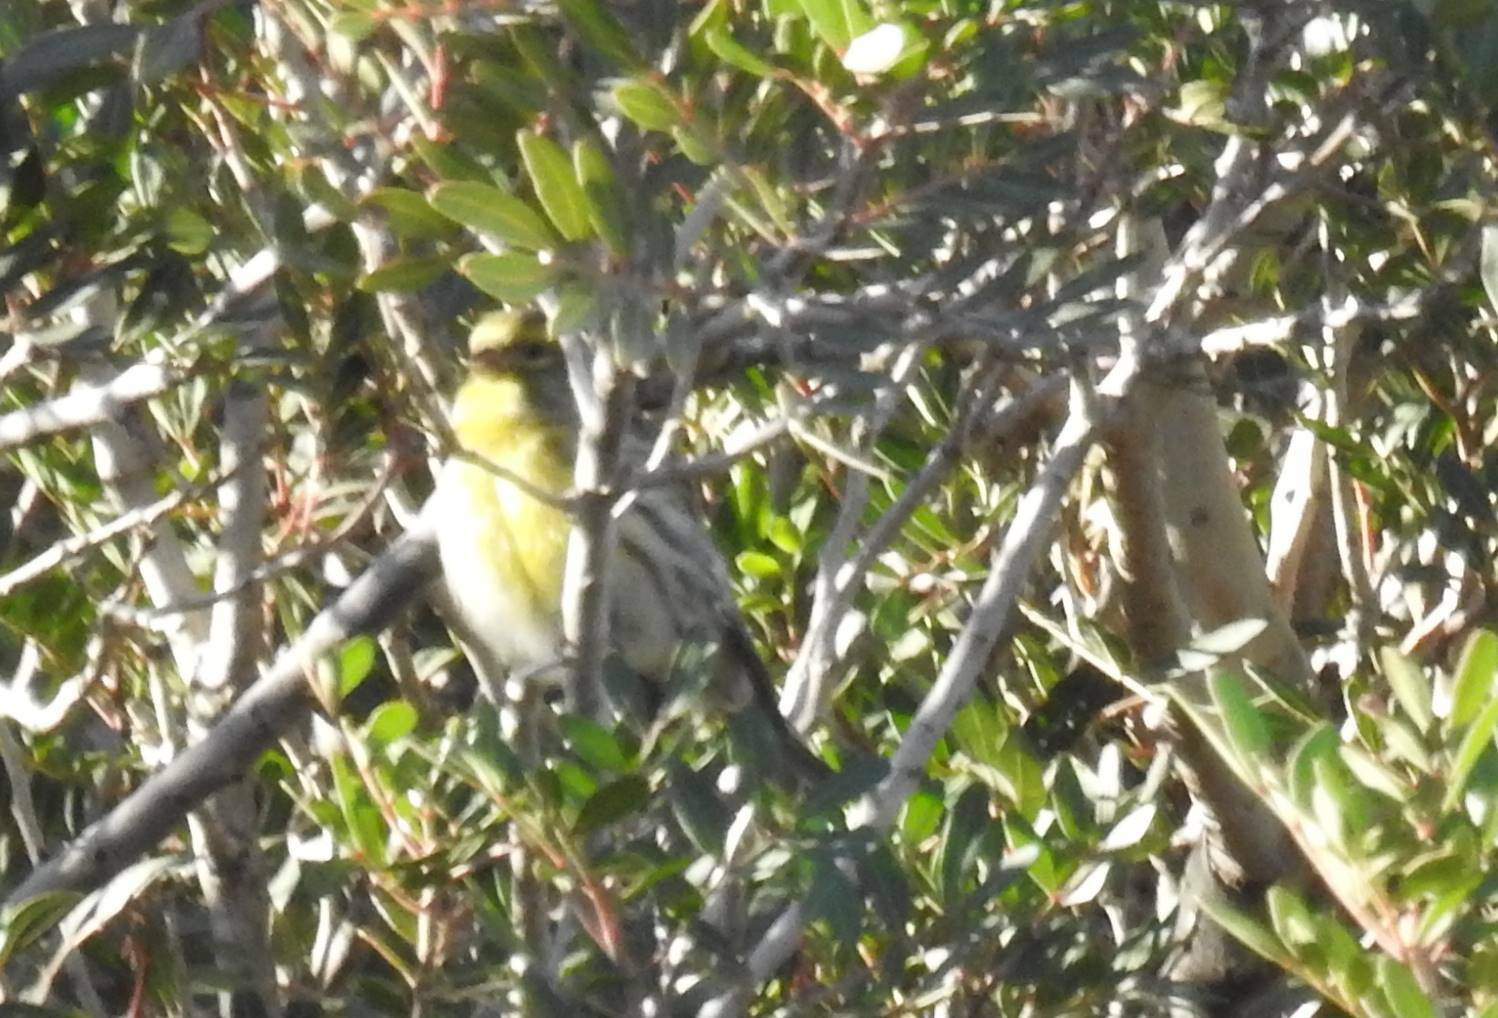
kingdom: Animalia
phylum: Chordata
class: Aves
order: Passeriformes
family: Fringillidae
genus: Serinus
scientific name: Serinus serinus
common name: European serin
